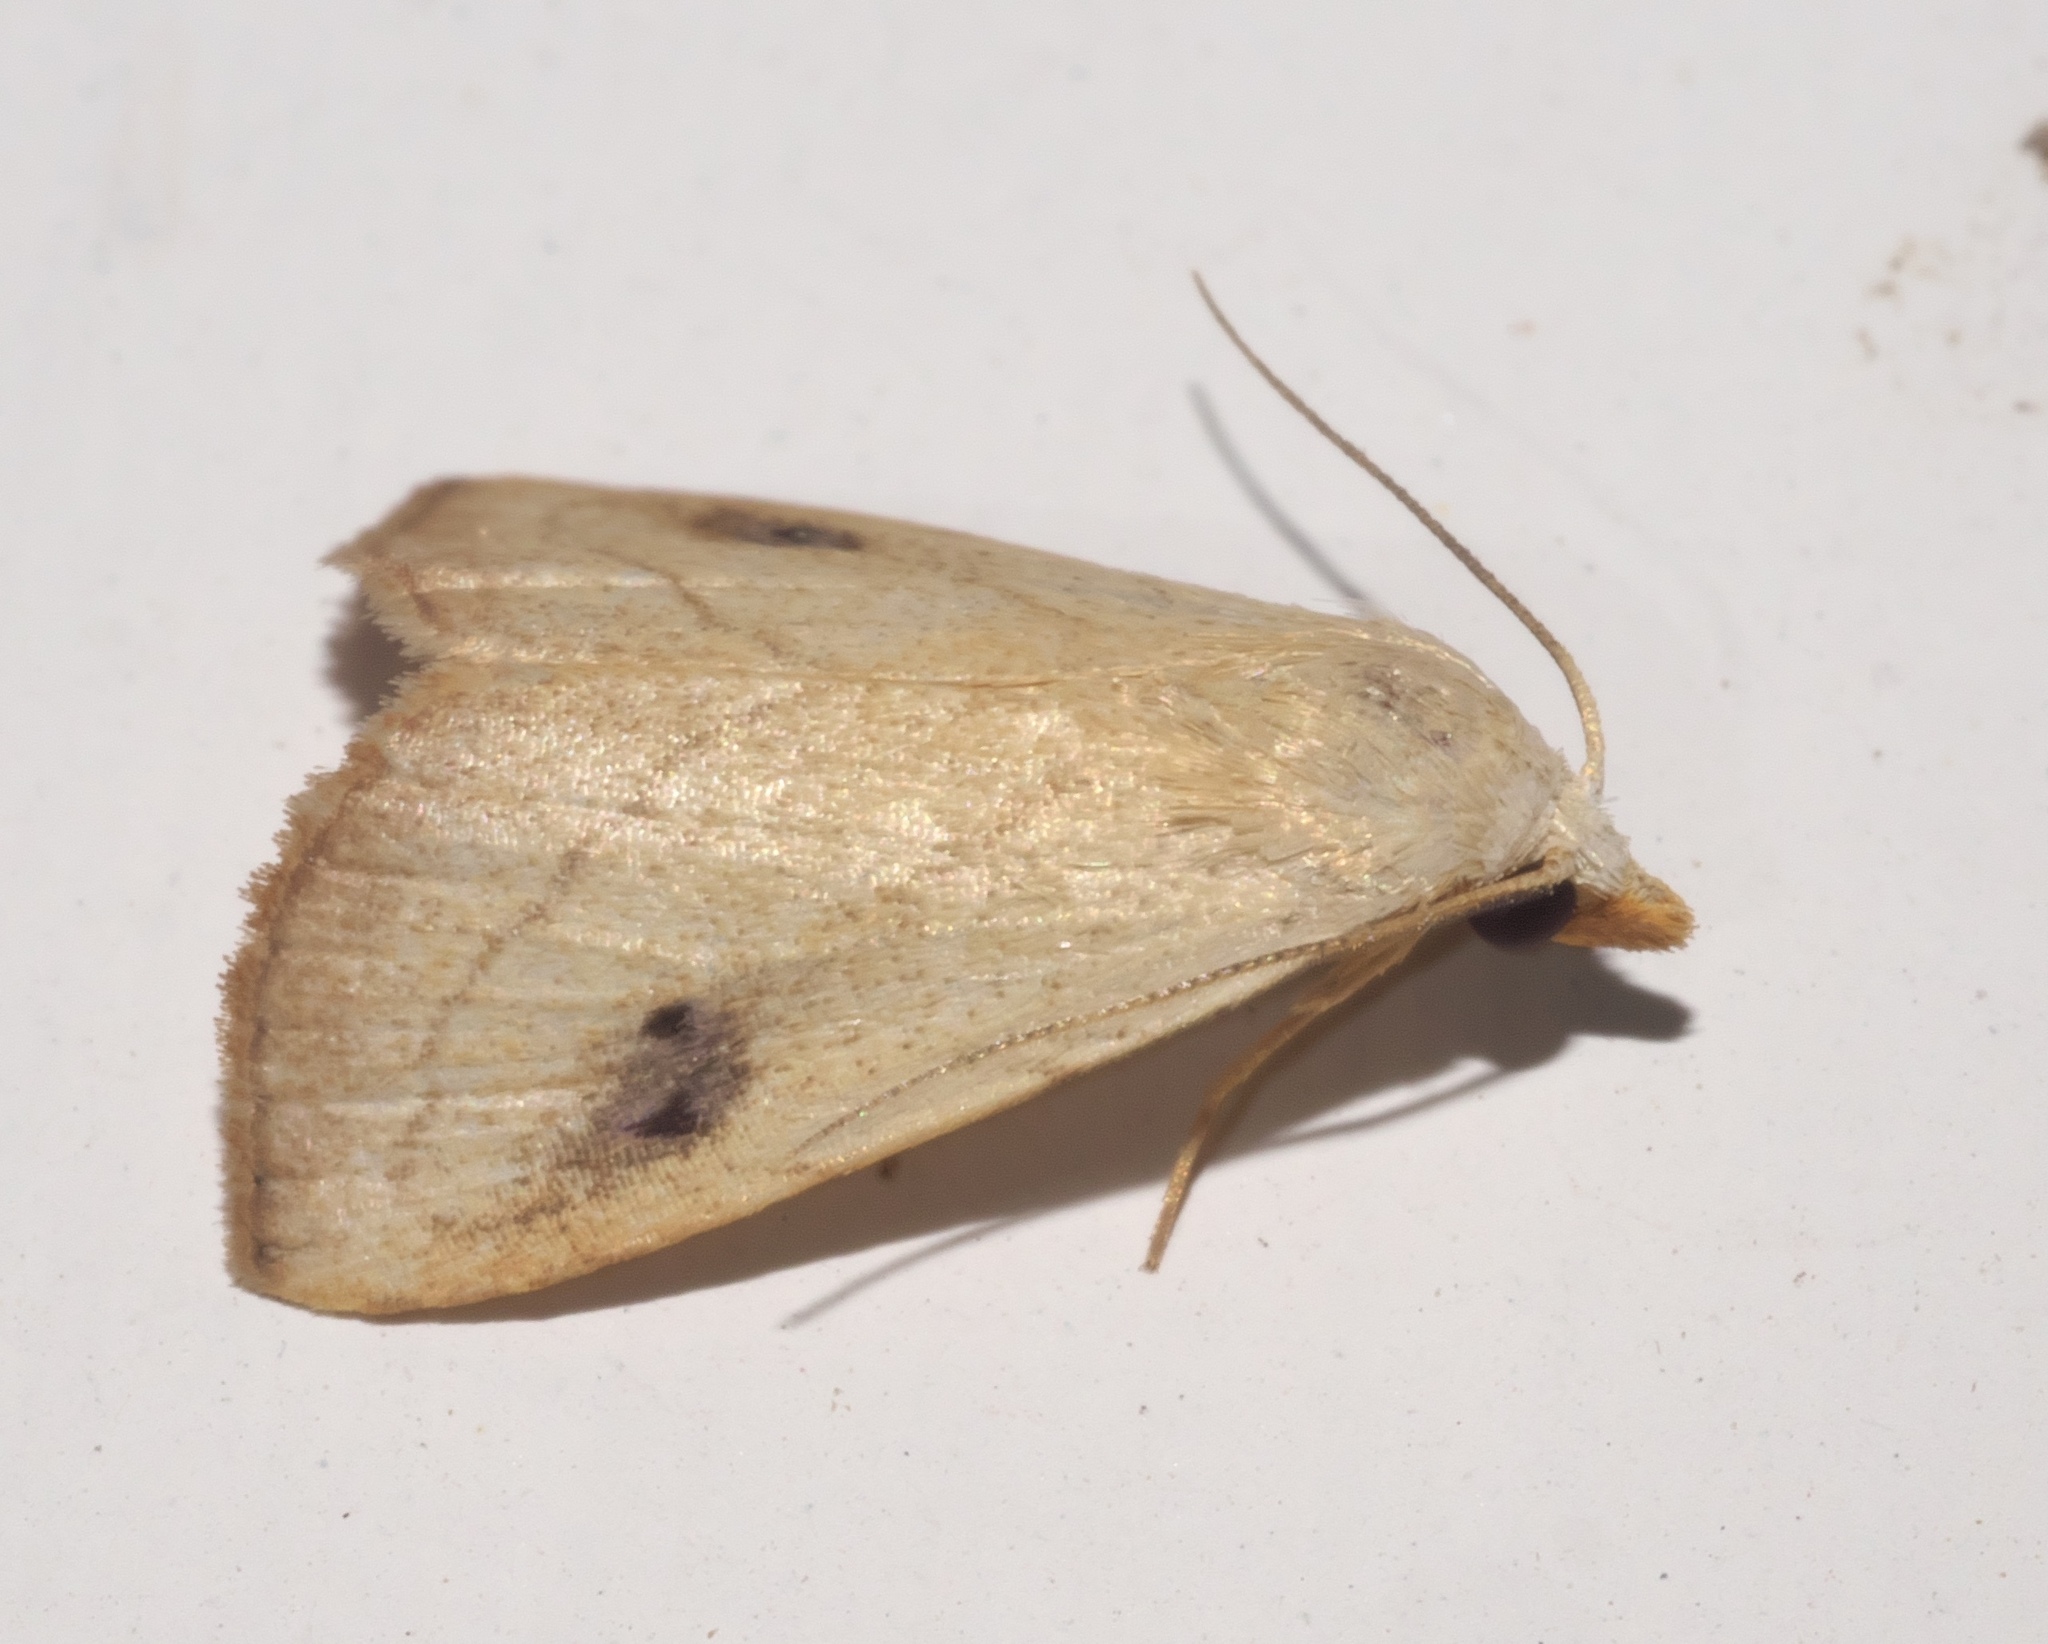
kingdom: Animalia
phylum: Arthropoda
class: Insecta
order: Lepidoptera
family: Erebidae
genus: Rivula
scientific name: Rivula propinqualis
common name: Spotted grass moth
